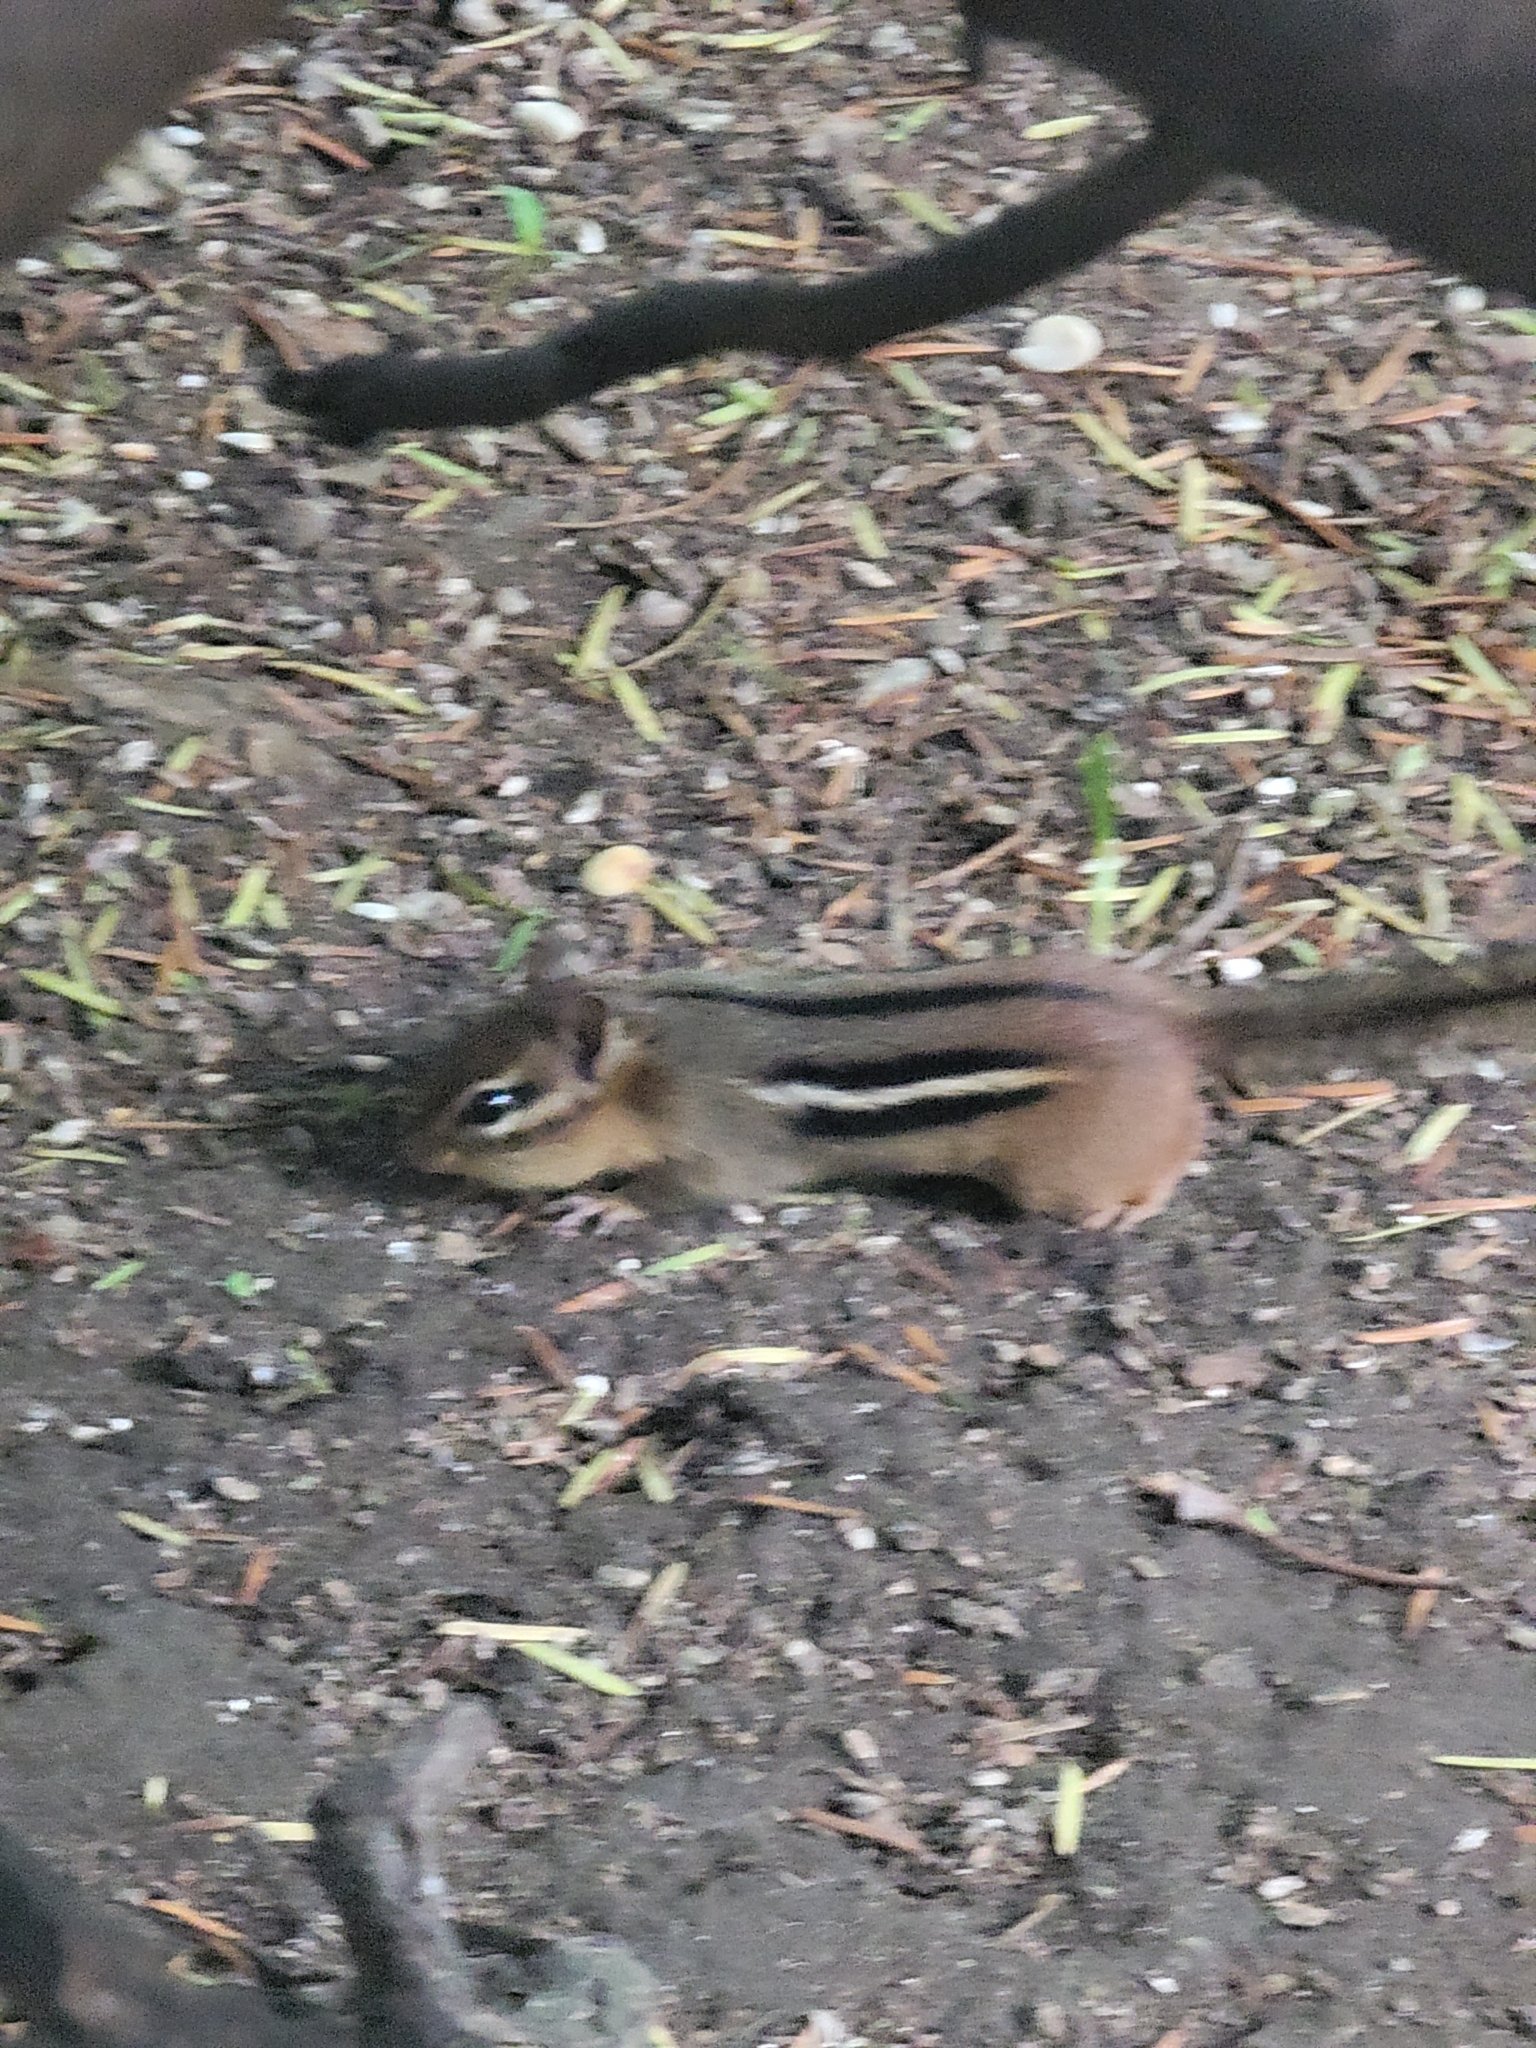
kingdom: Animalia
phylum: Chordata
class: Mammalia
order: Rodentia
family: Sciuridae
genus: Tamias
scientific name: Tamias striatus
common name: Eastern chipmunk
